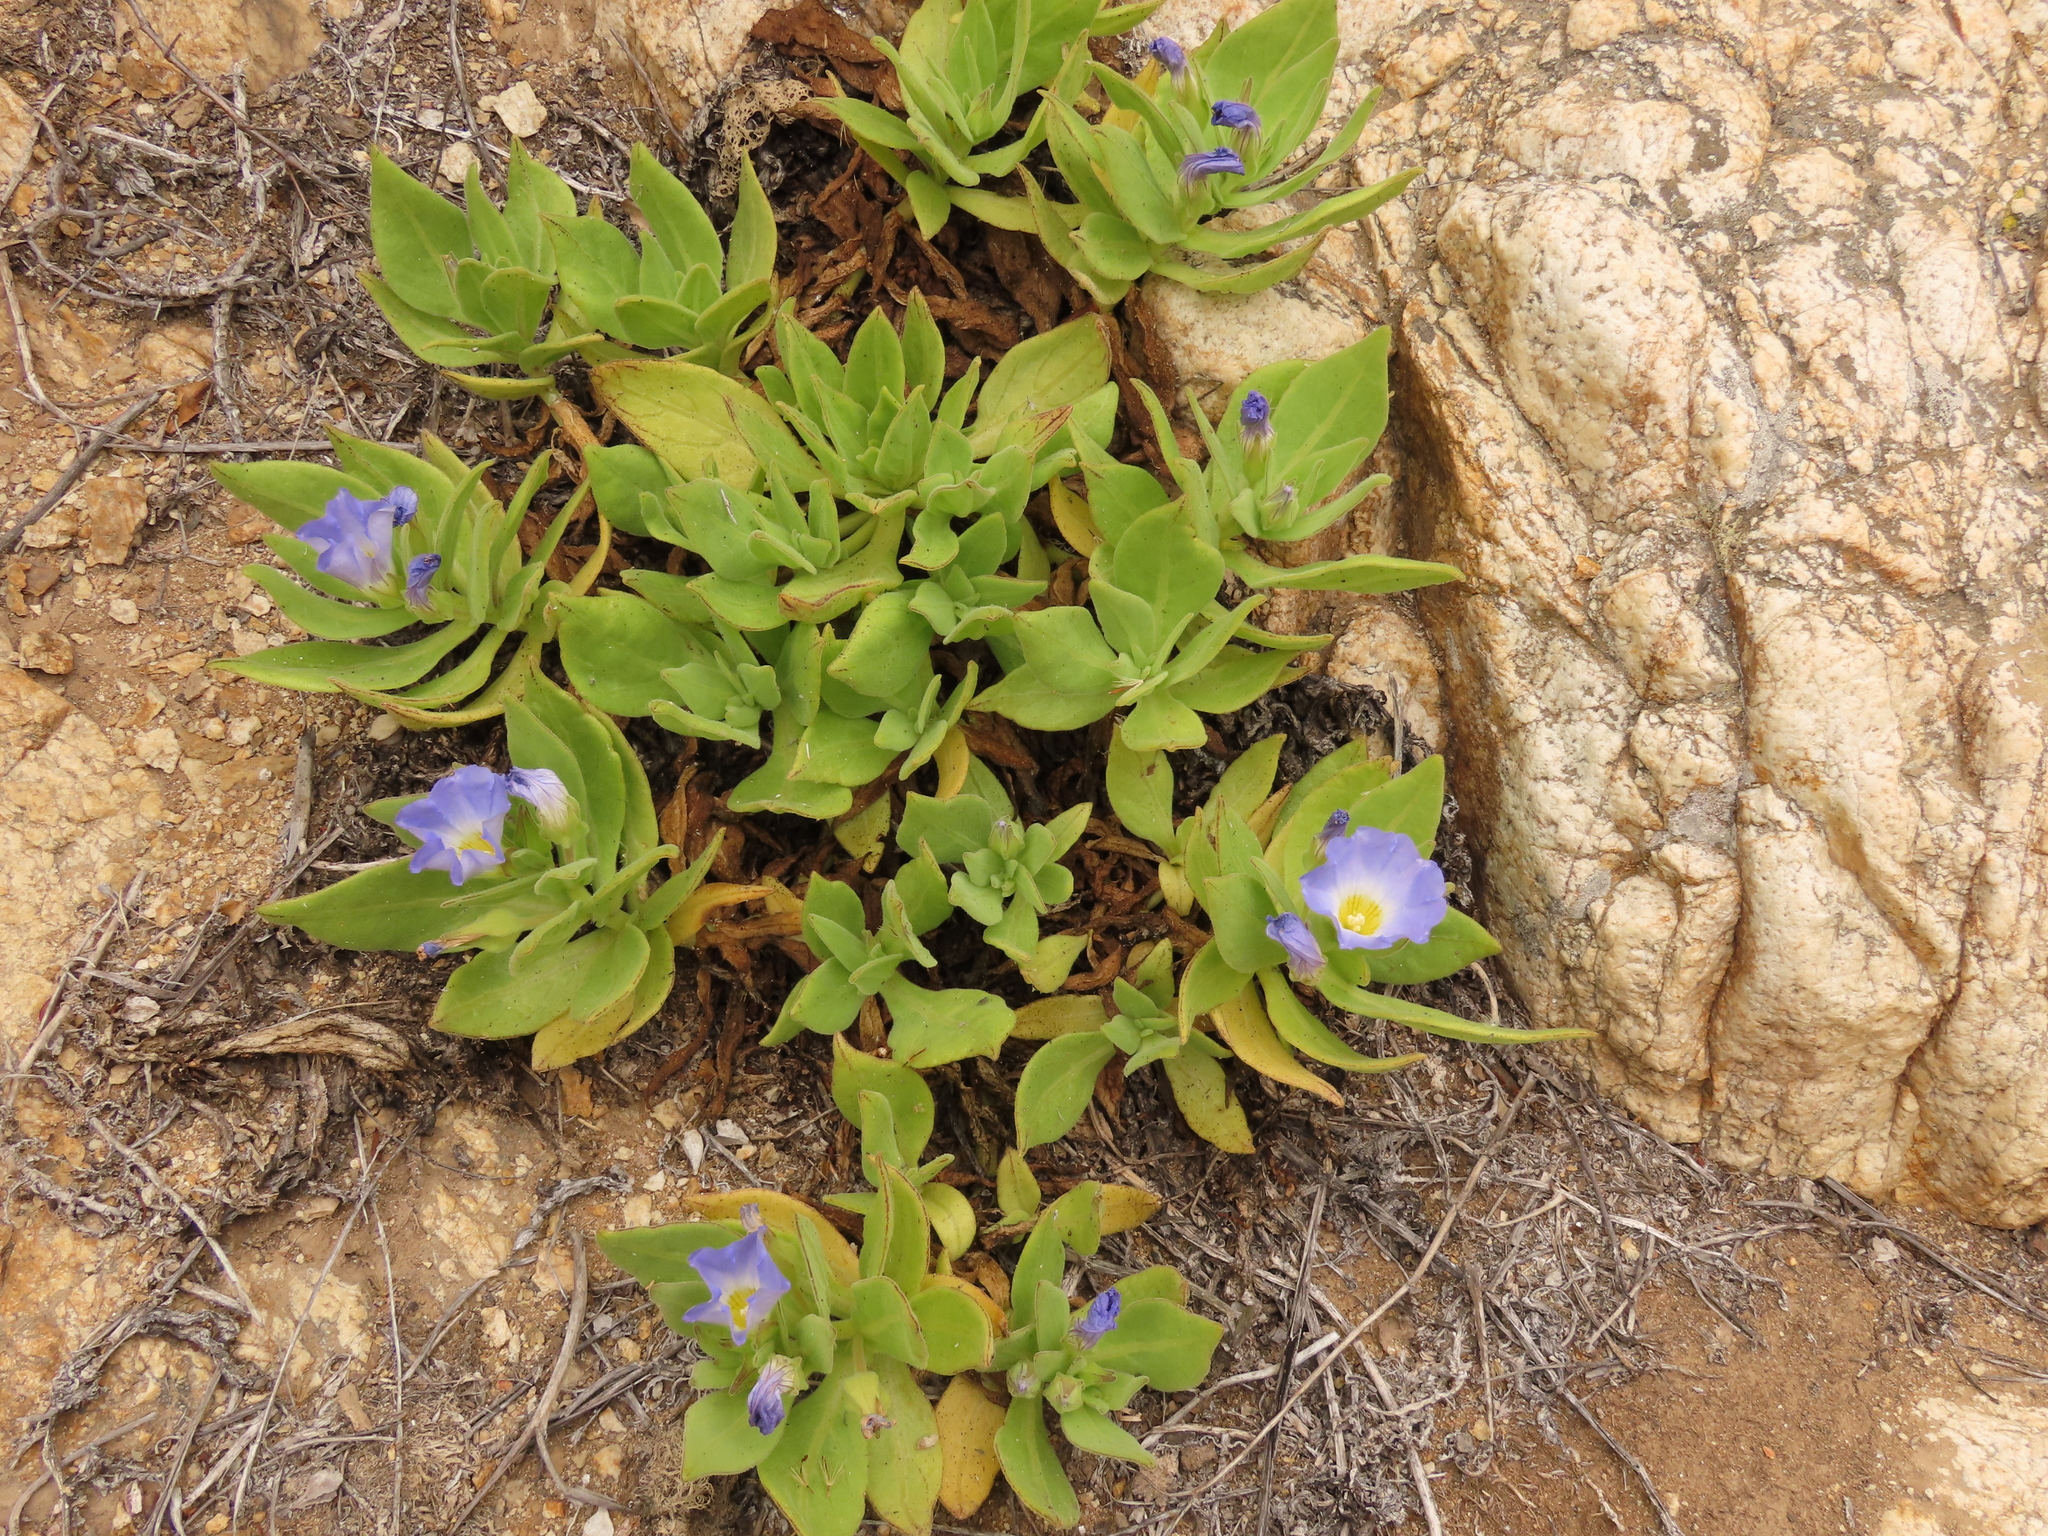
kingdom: Plantae
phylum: Tracheophyta
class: Magnoliopsida
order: Solanales
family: Solanaceae
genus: Nolana
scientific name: Nolana rupicola
